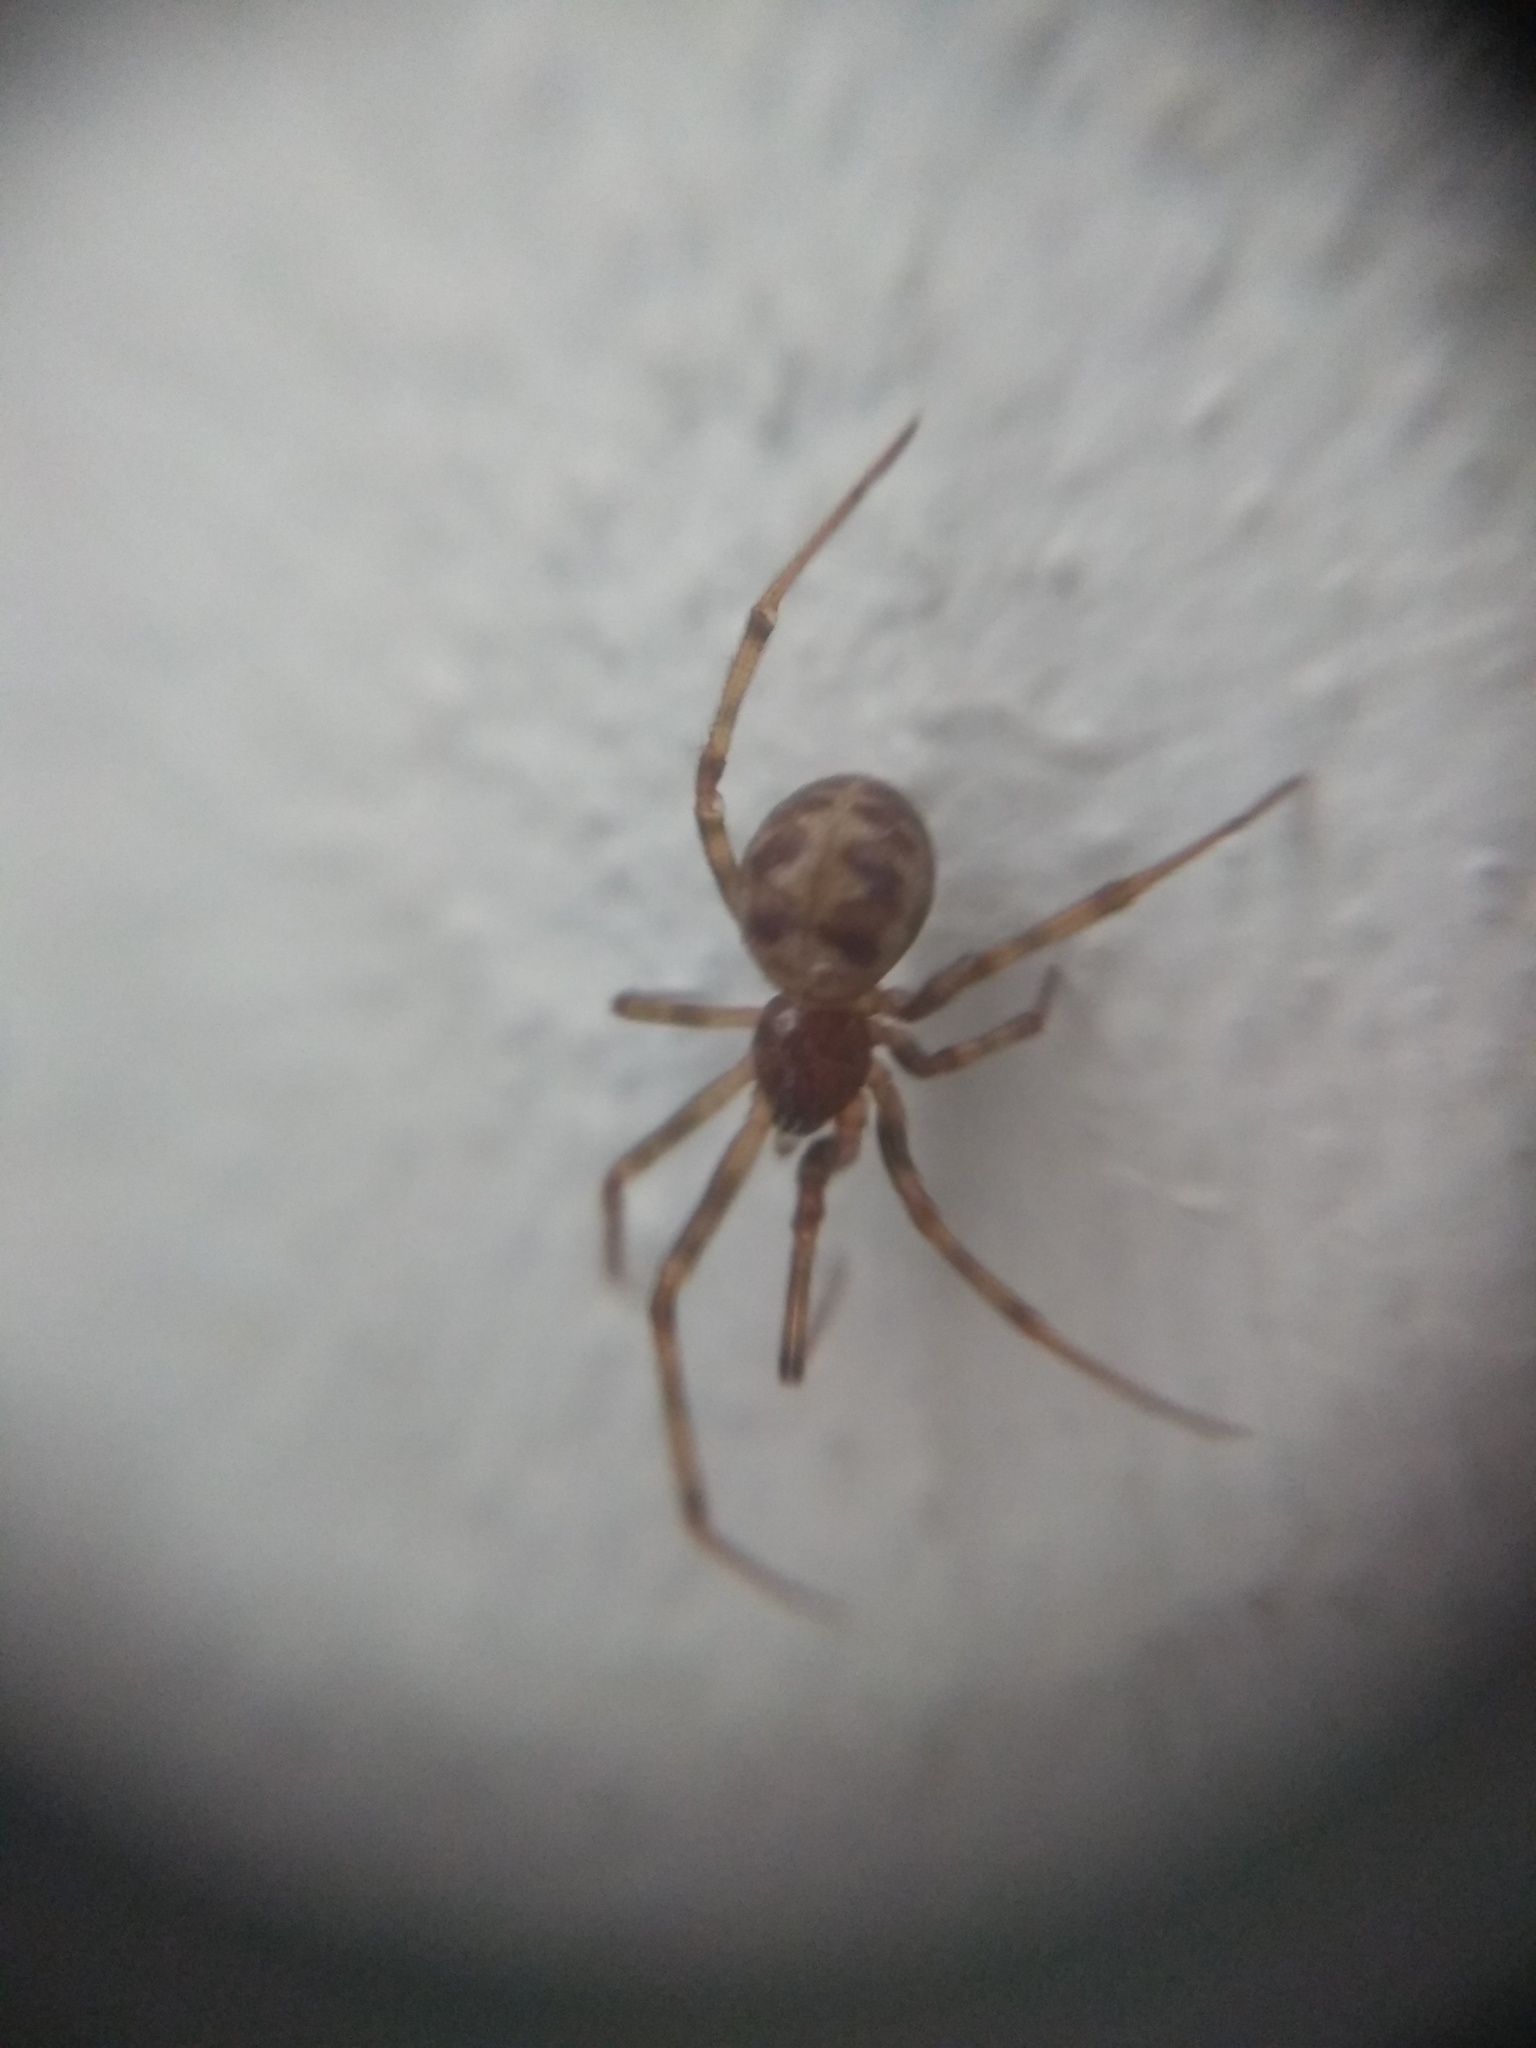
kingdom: Animalia
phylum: Arthropoda
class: Arachnida
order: Araneae
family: Theridiidae
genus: Steatoda
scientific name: Steatoda triangulosa
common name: Triangulate bud spider
